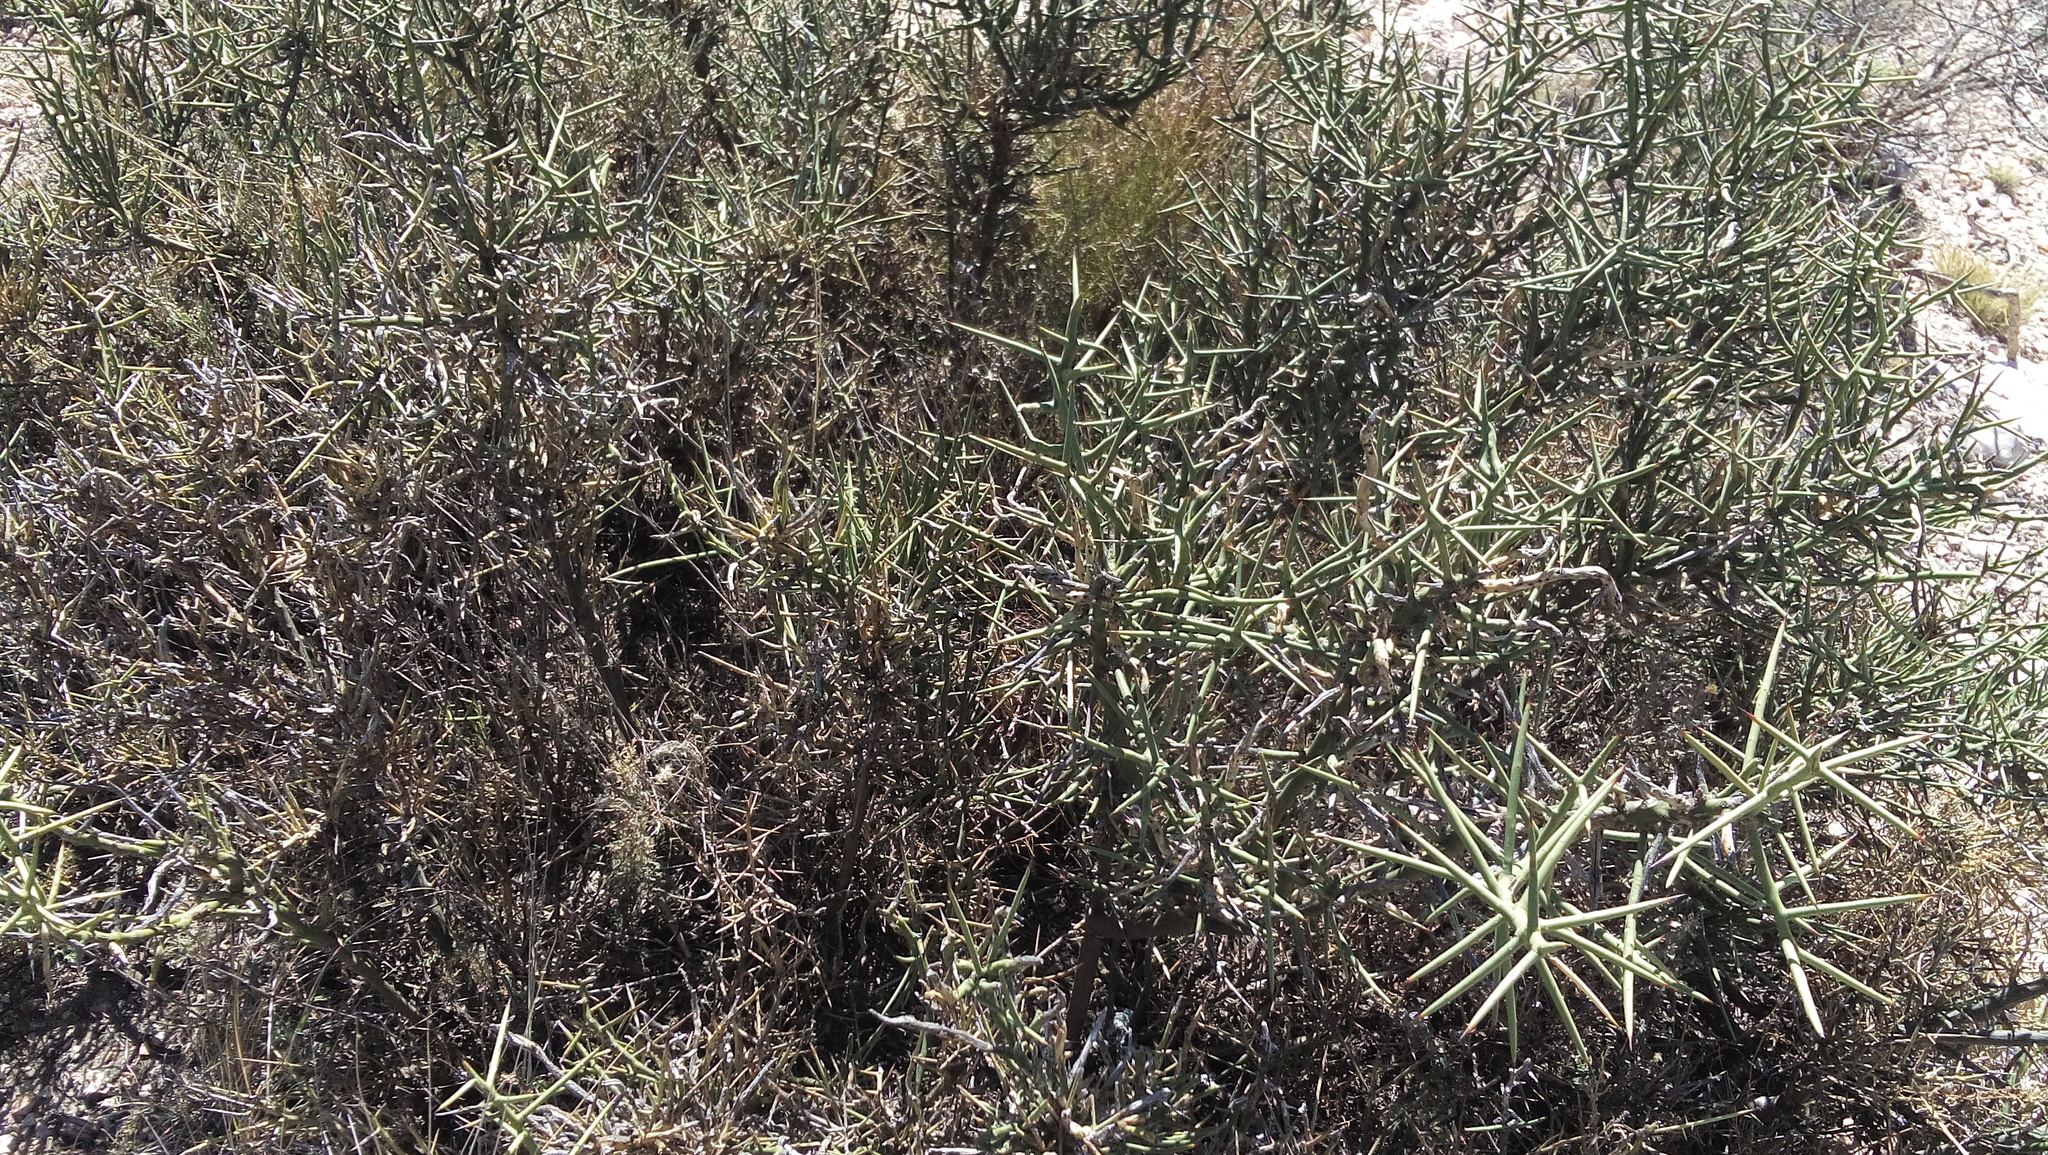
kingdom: Plantae
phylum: Tracheophyta
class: Magnoliopsida
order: Brassicales
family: Koeberliniaceae
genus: Koeberlinia
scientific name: Koeberlinia spinosa
